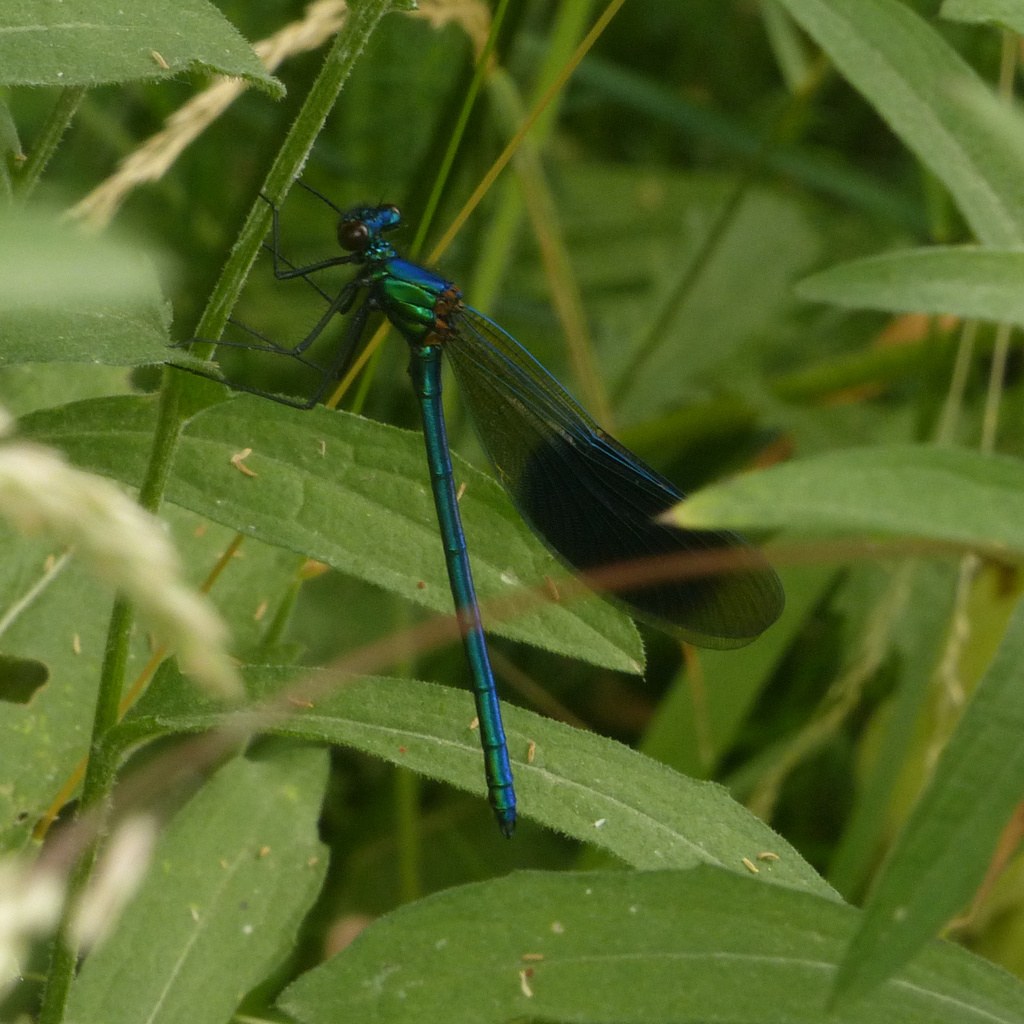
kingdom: Animalia
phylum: Arthropoda
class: Insecta
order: Odonata
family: Calopterygidae
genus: Calopteryx
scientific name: Calopteryx splendens
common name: Banded demoiselle
